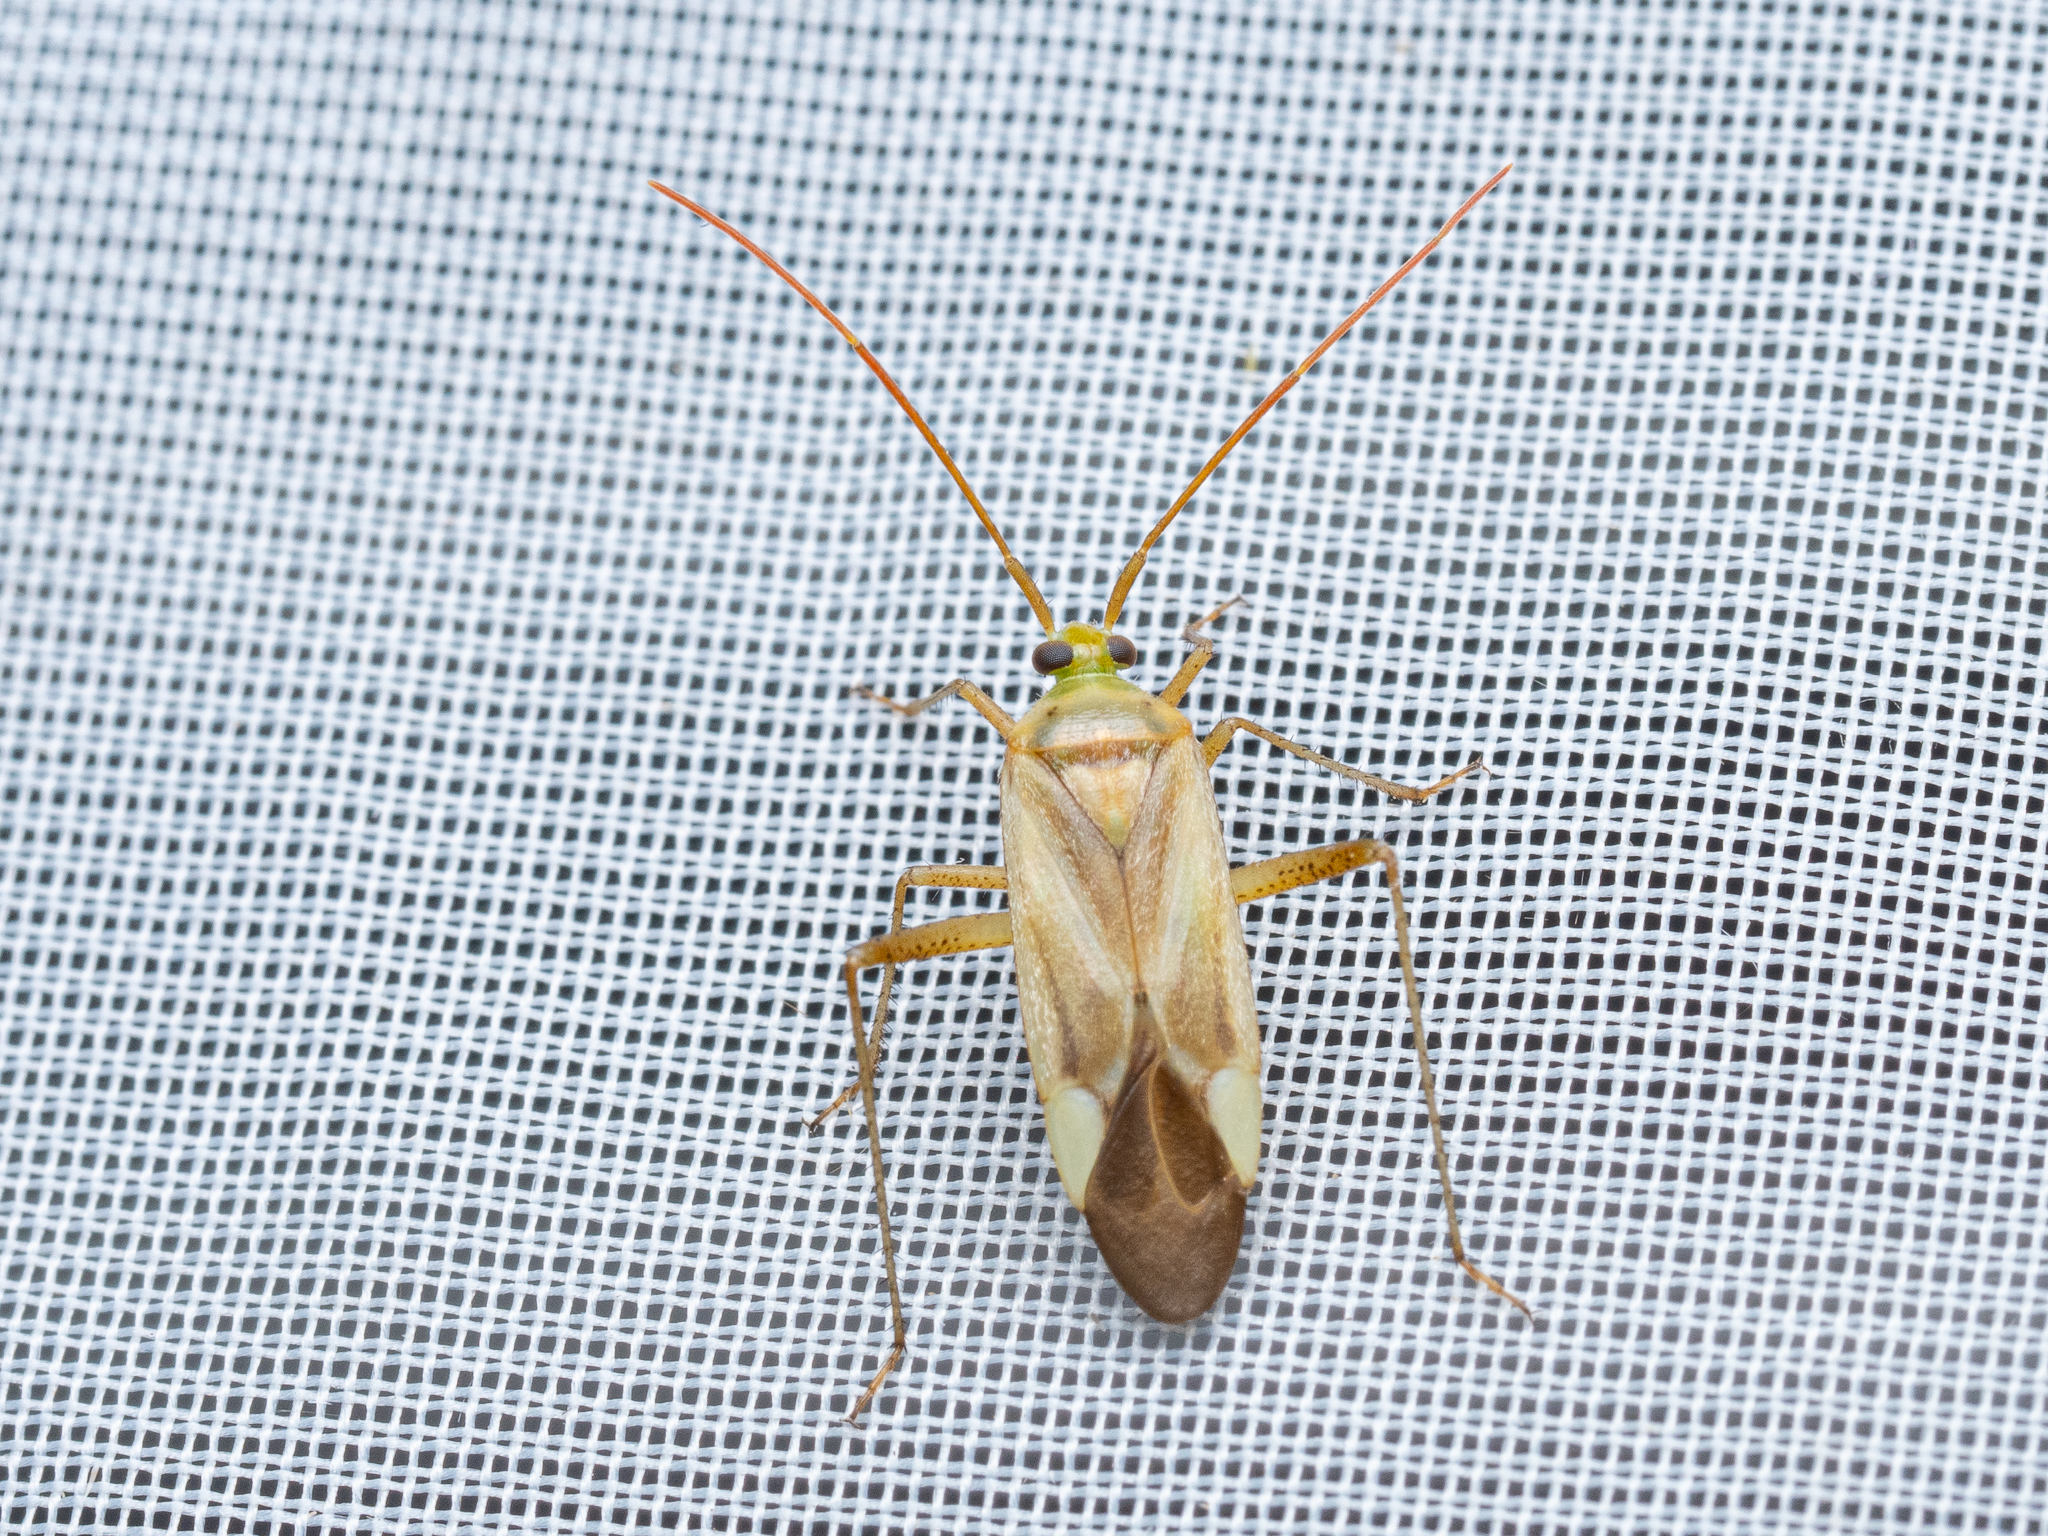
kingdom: Animalia
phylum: Arthropoda
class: Insecta
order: Hemiptera
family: Miridae
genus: Adelphocoris
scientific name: Adelphocoris lineolatus
